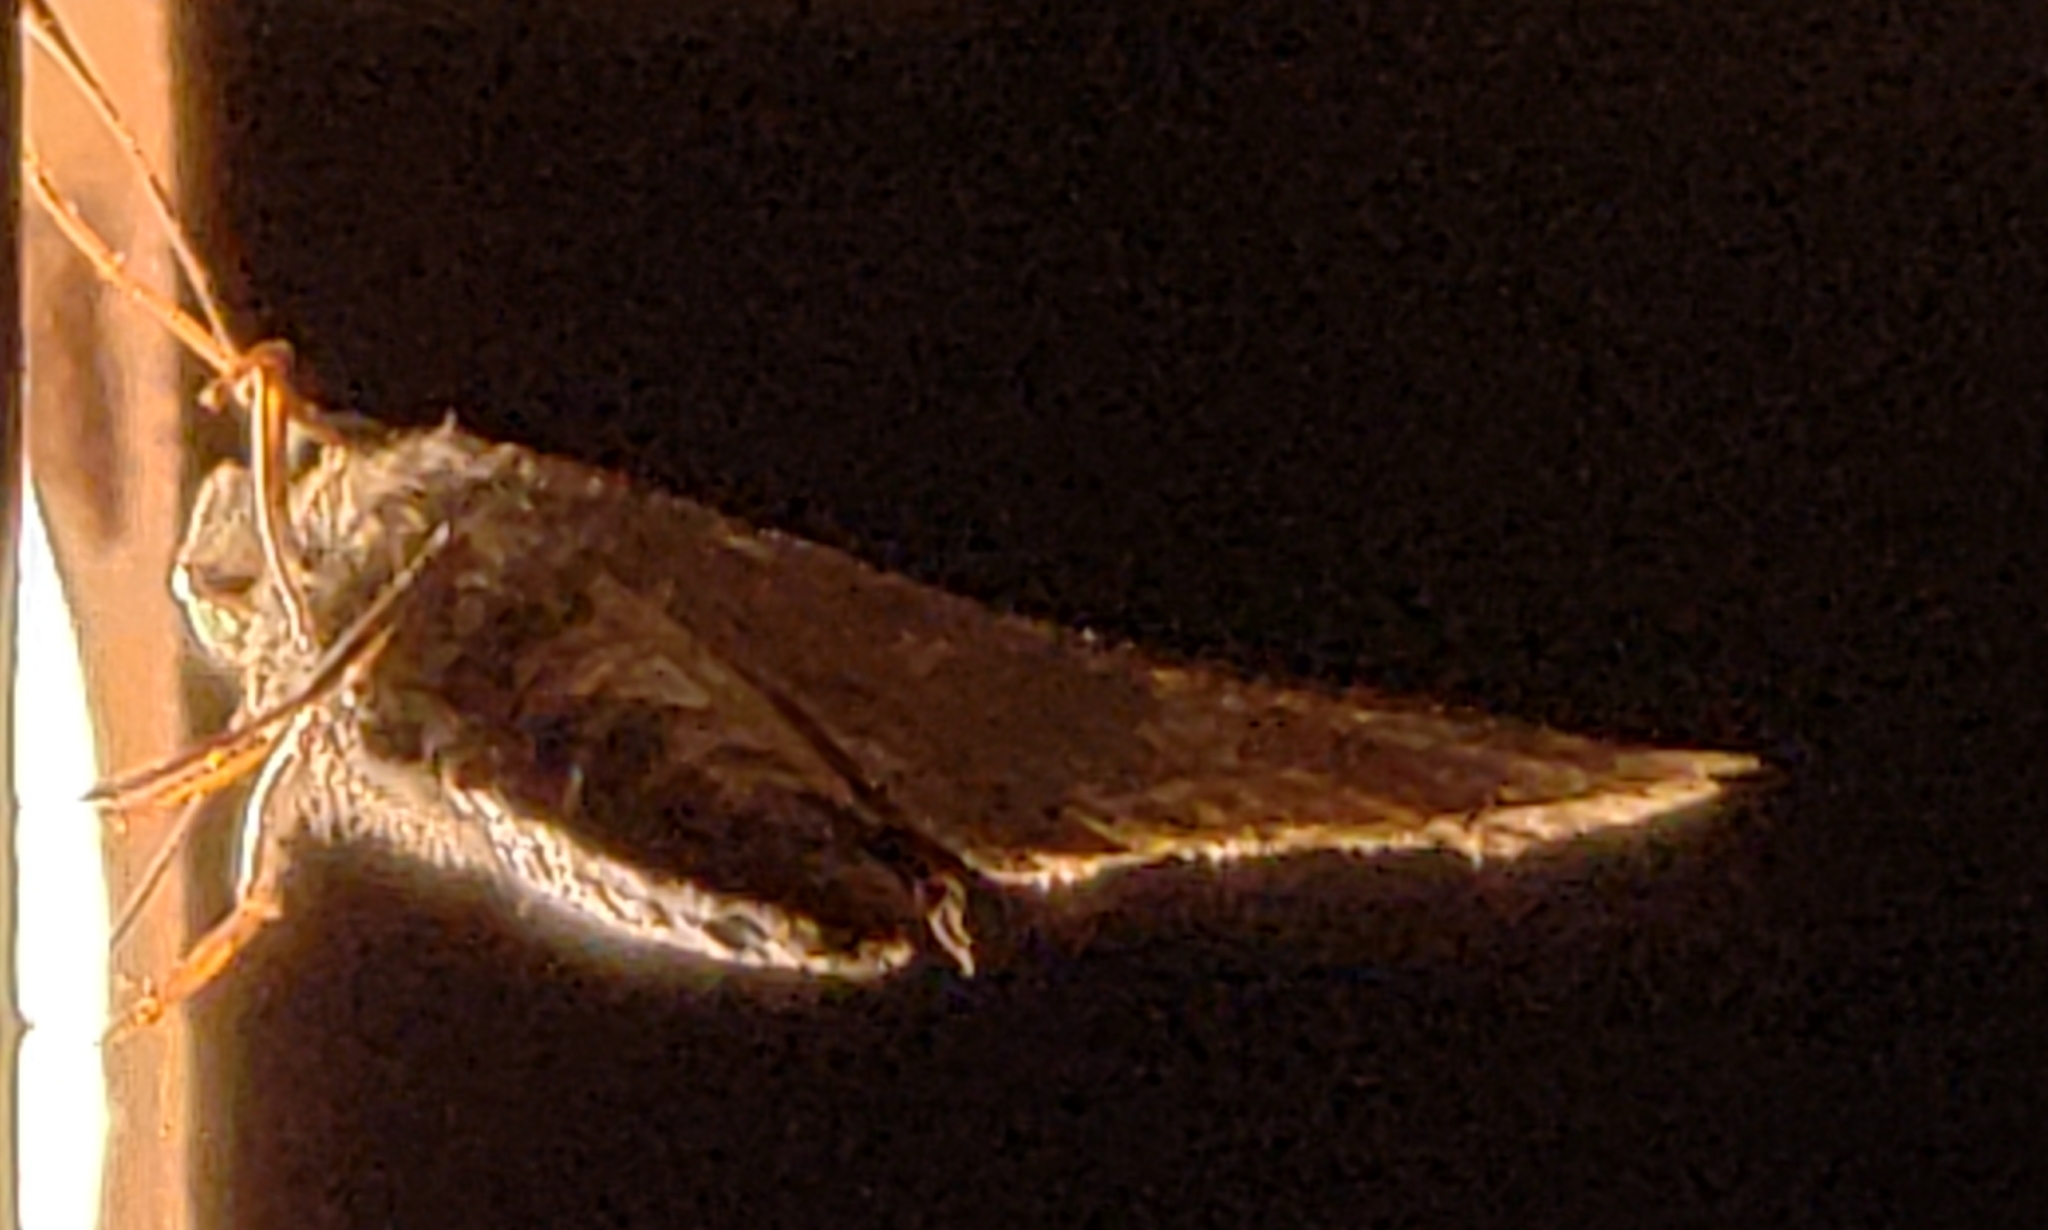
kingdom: Animalia
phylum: Arthropoda
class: Insecta
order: Lepidoptera
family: Hesperiidae
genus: Asbolis
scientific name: Asbolis capucinus
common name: Monk skipper
